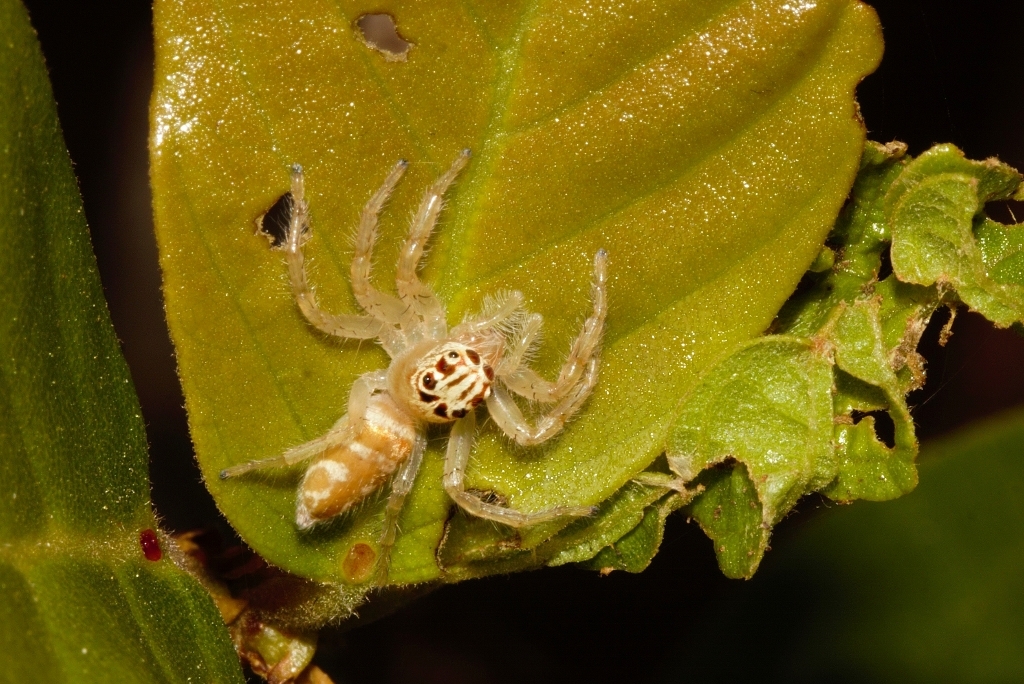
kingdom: Animalia
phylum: Arthropoda
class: Arachnida
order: Araneae
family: Salticidae
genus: Brancus
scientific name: Brancus mustelus
